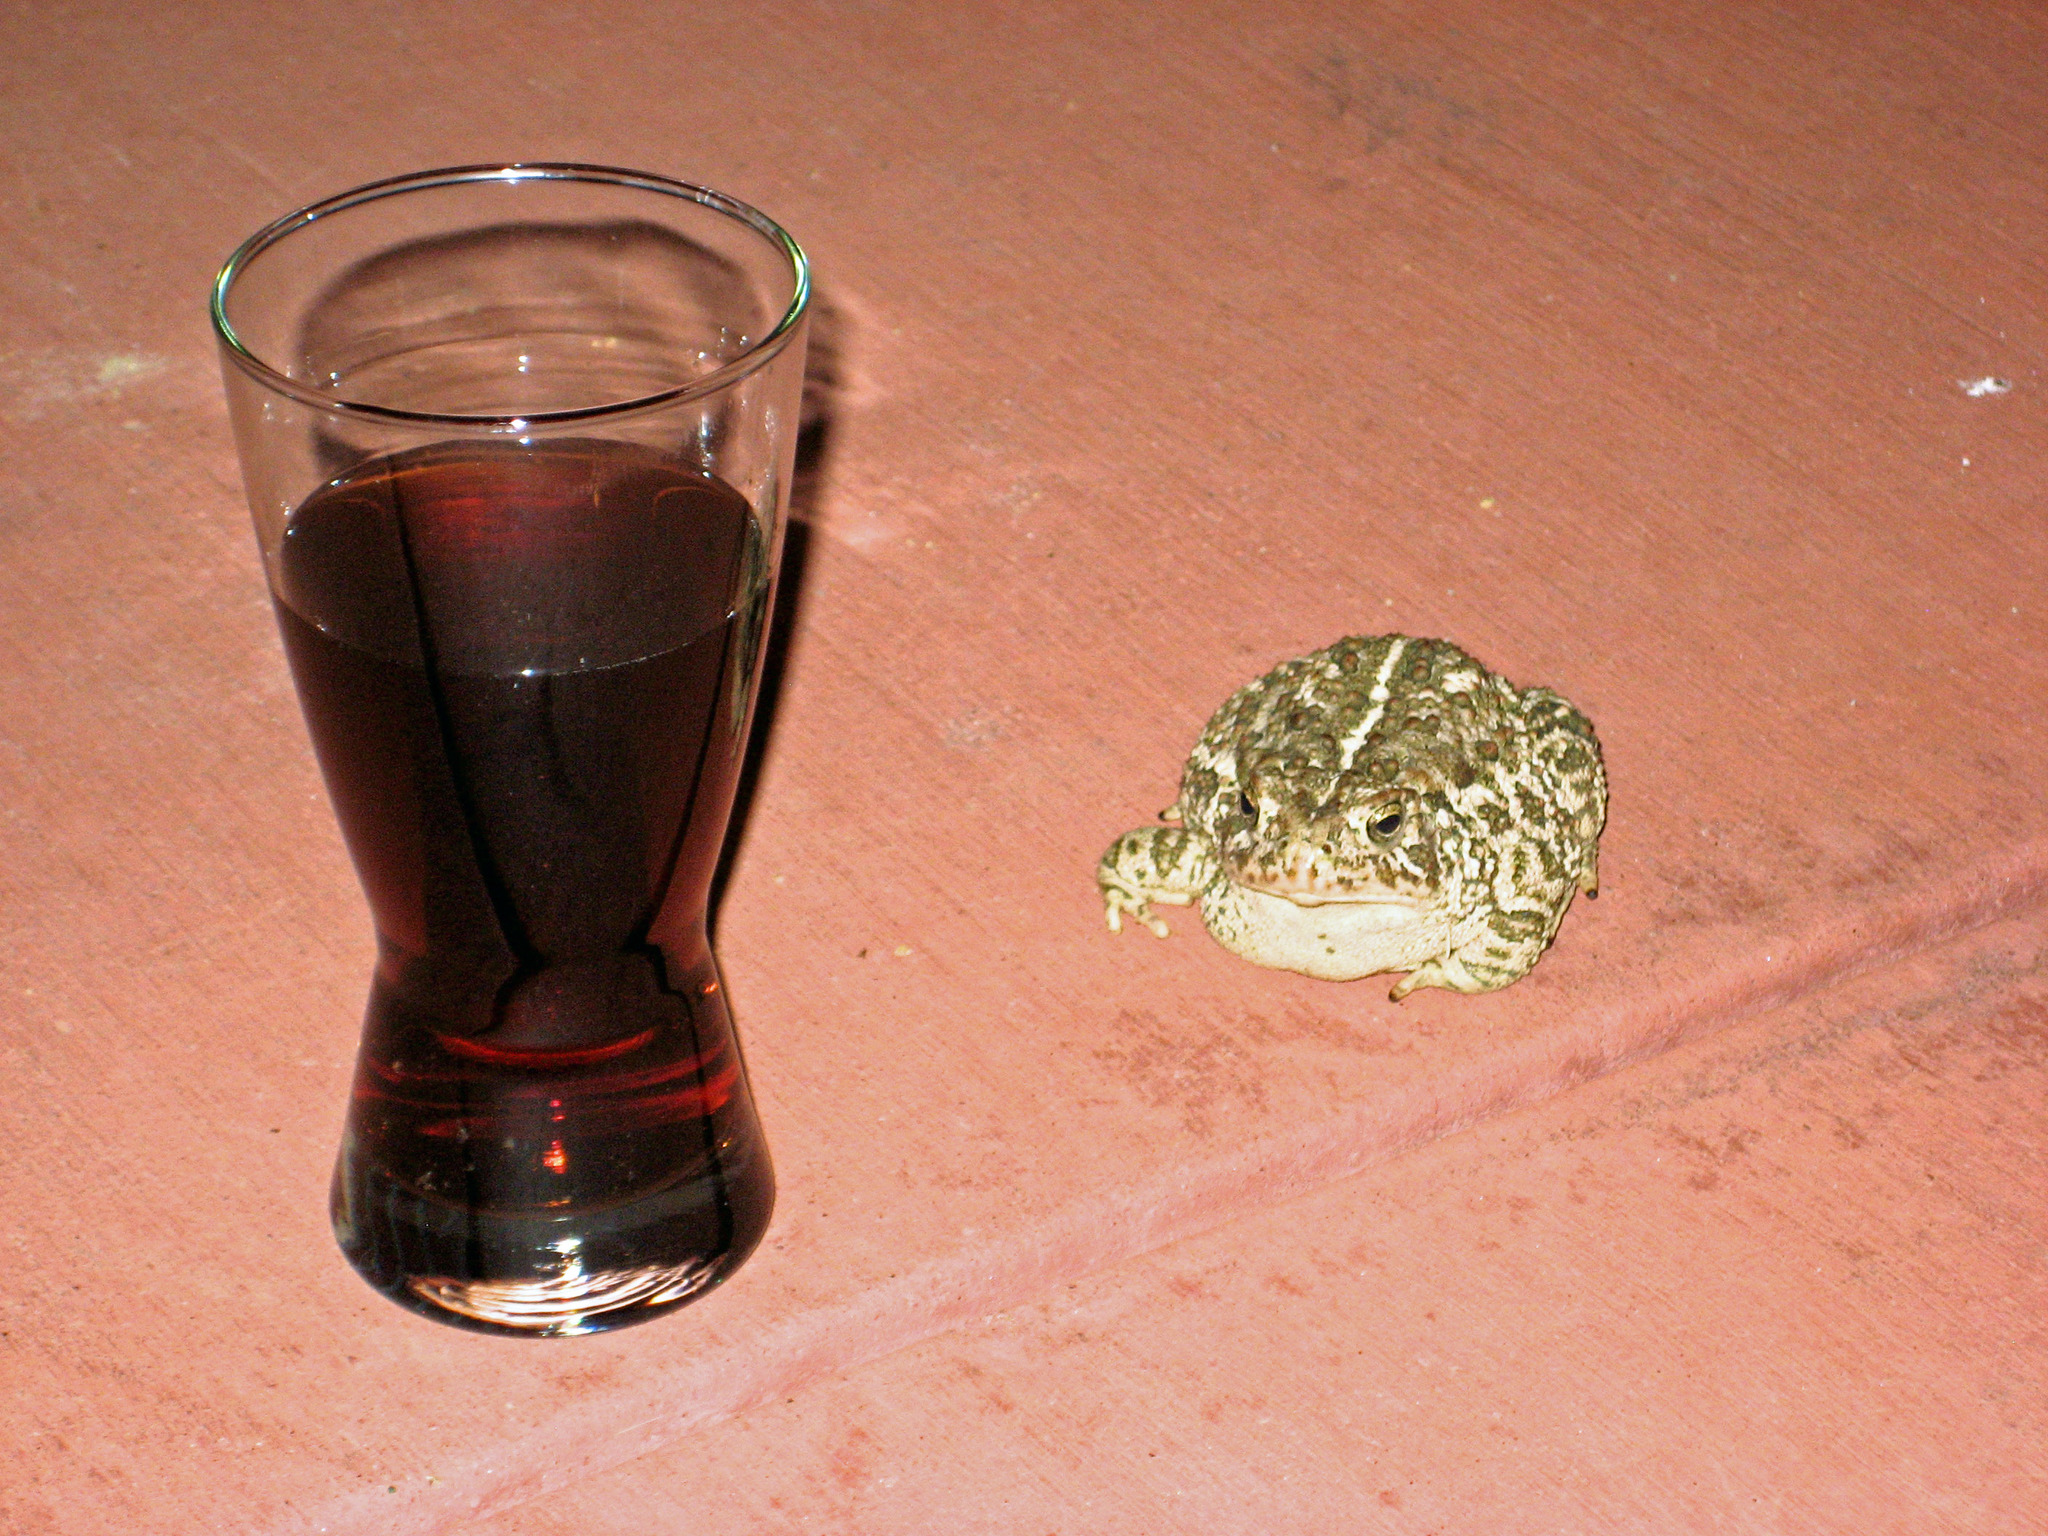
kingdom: Animalia
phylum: Chordata
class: Amphibia
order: Anura
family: Bufonidae
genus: Anaxyrus
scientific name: Anaxyrus woodhousii
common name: Woodhouse's toad
